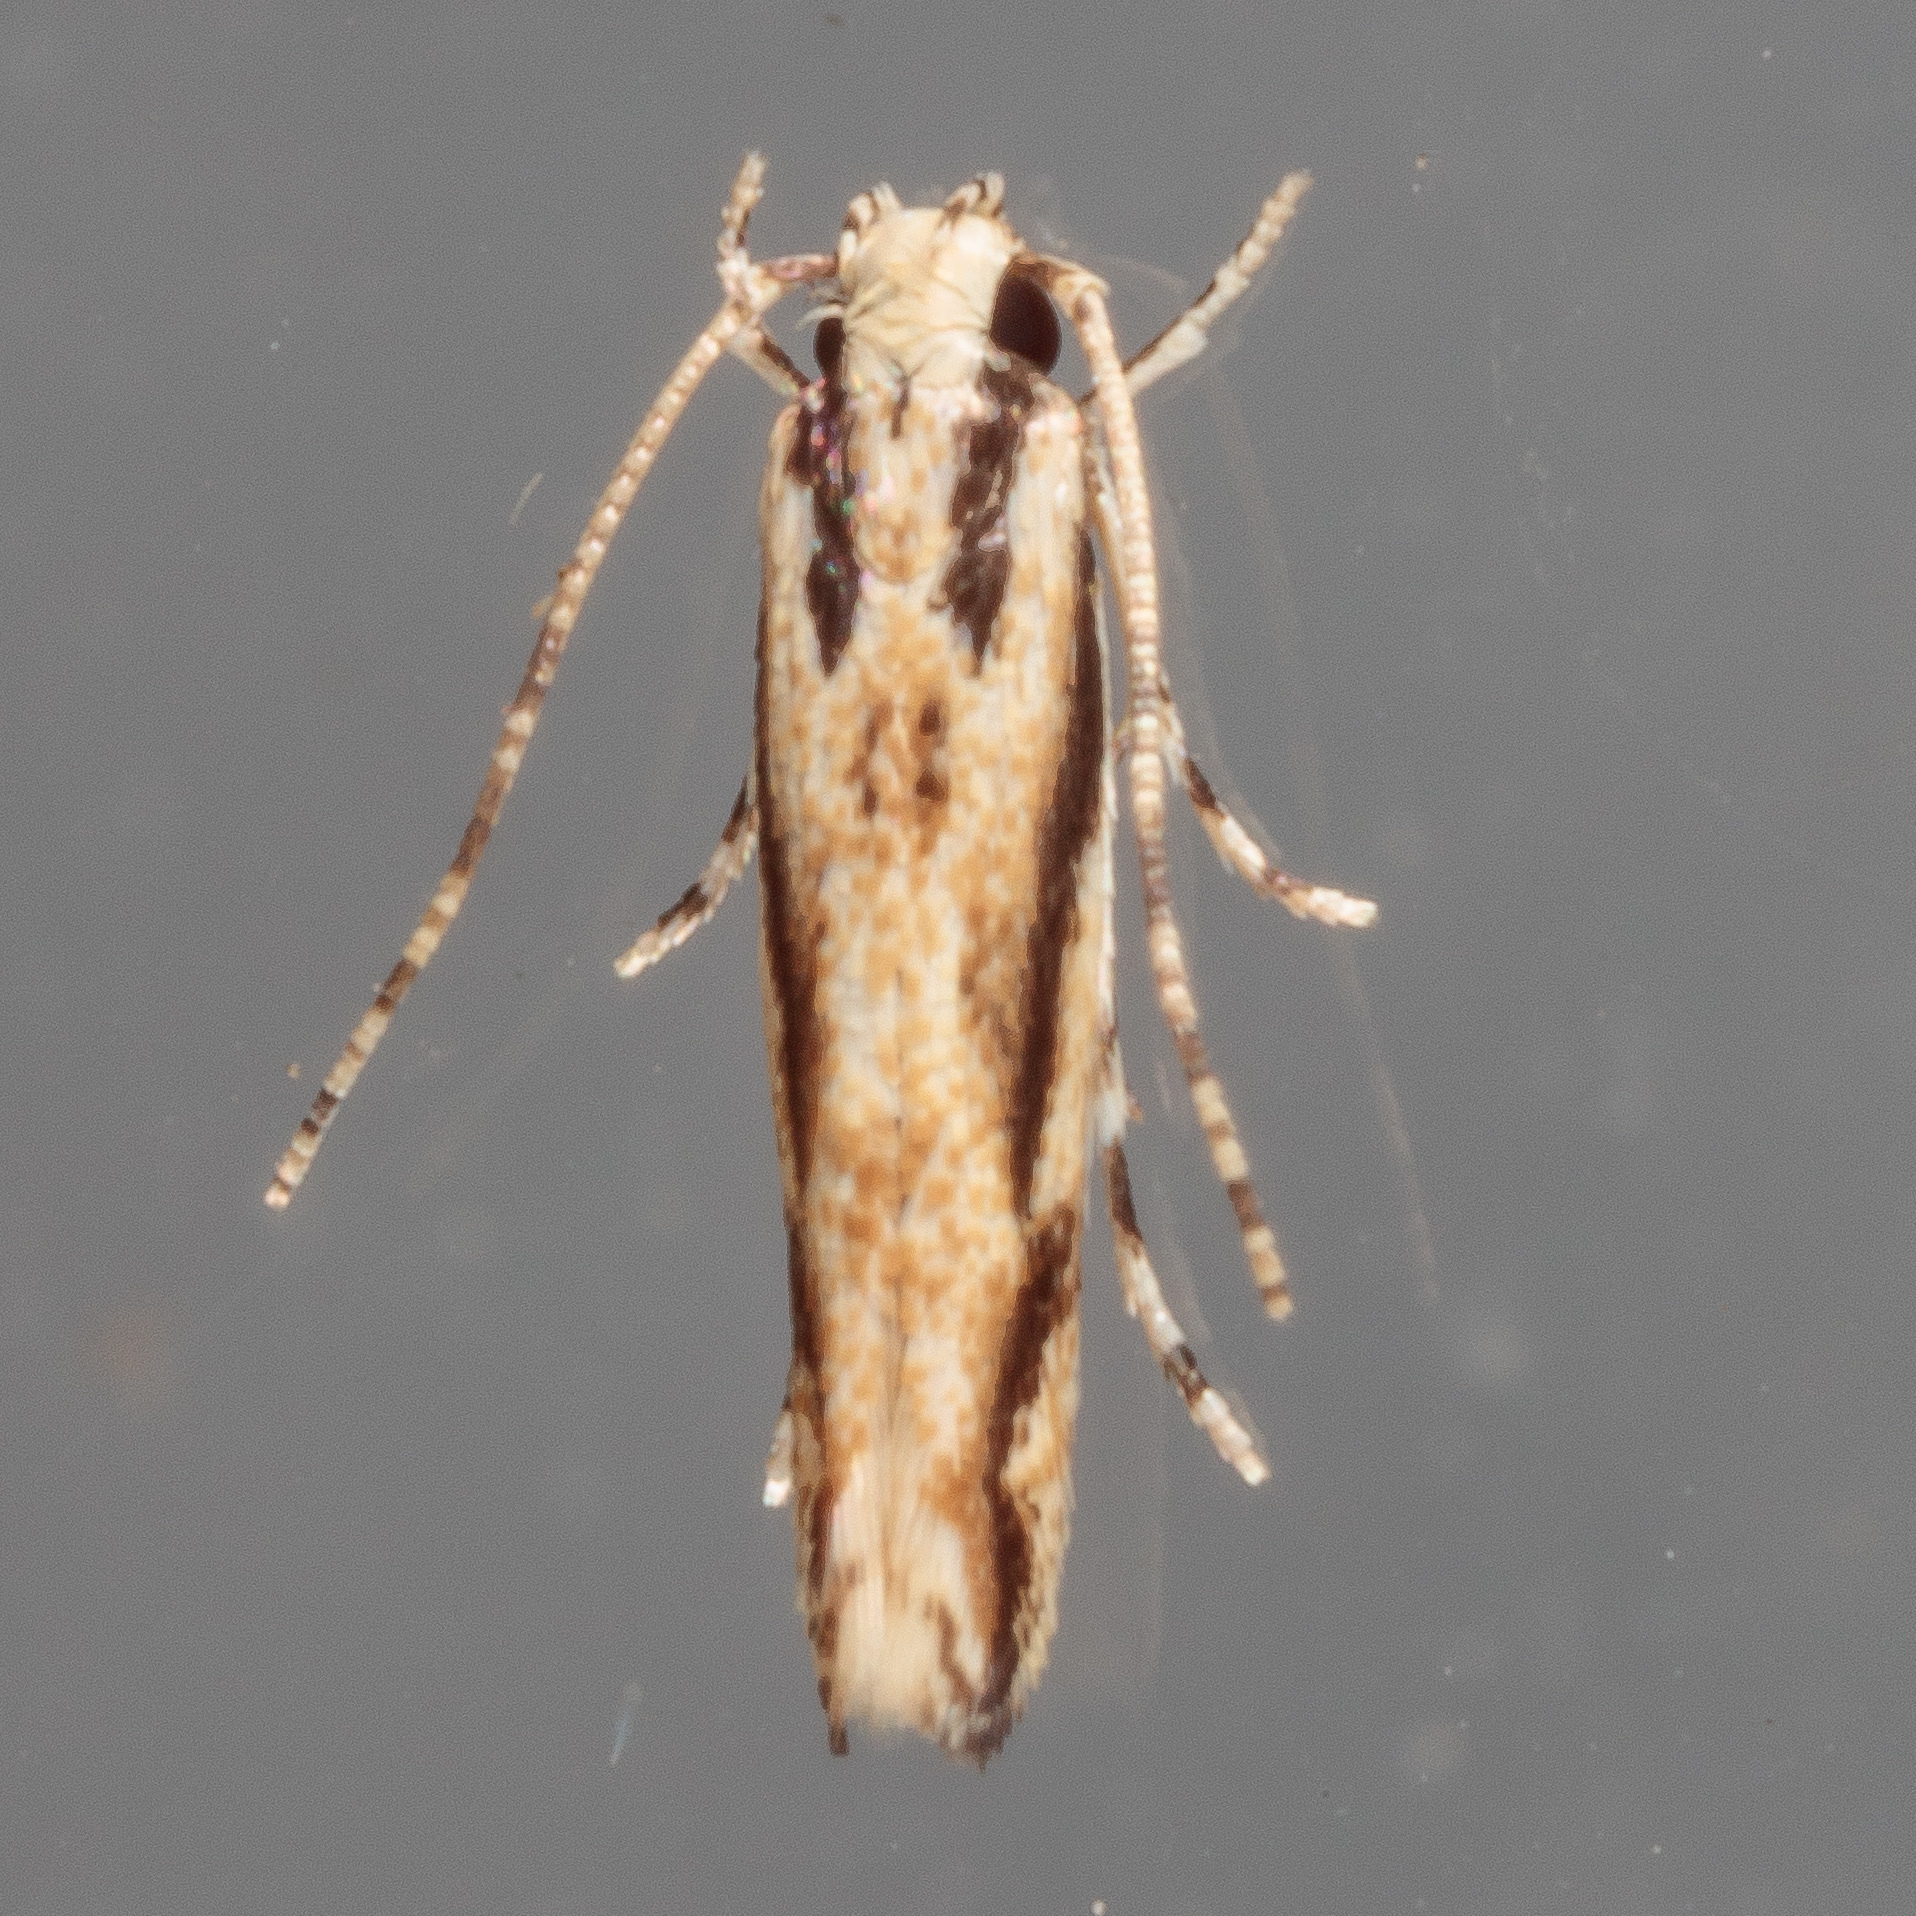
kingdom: Animalia
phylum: Arthropoda
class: Insecta
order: Lepidoptera
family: Cosmopterigidae
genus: Melanocinclis
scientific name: Melanocinclis lineigera
